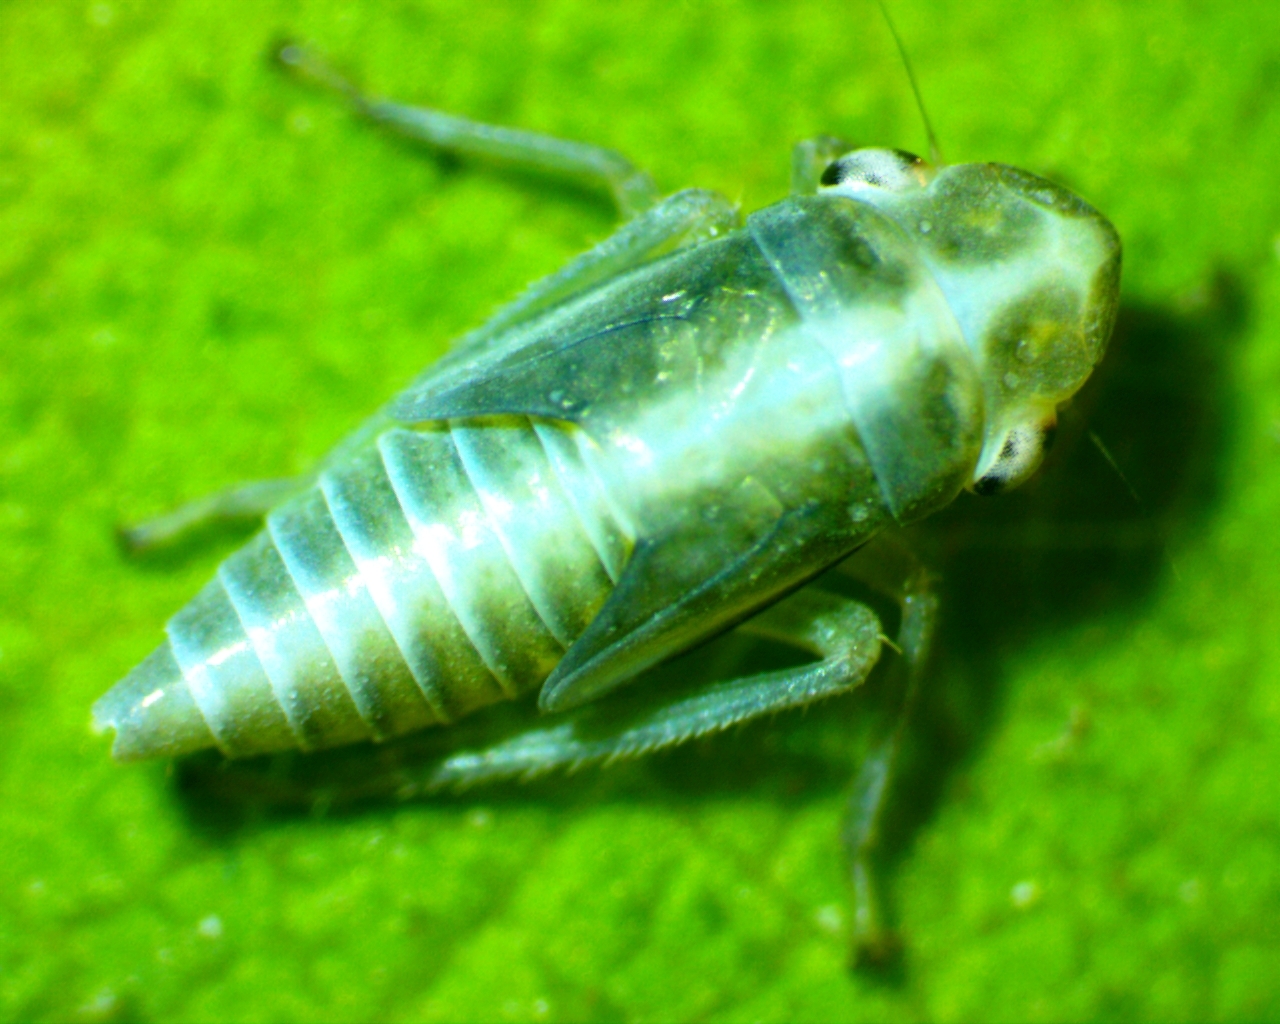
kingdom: Animalia
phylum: Arthropoda
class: Insecta
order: Hemiptera
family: Cicadellidae
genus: Neokolla
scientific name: Neokolla hieroglyphica
